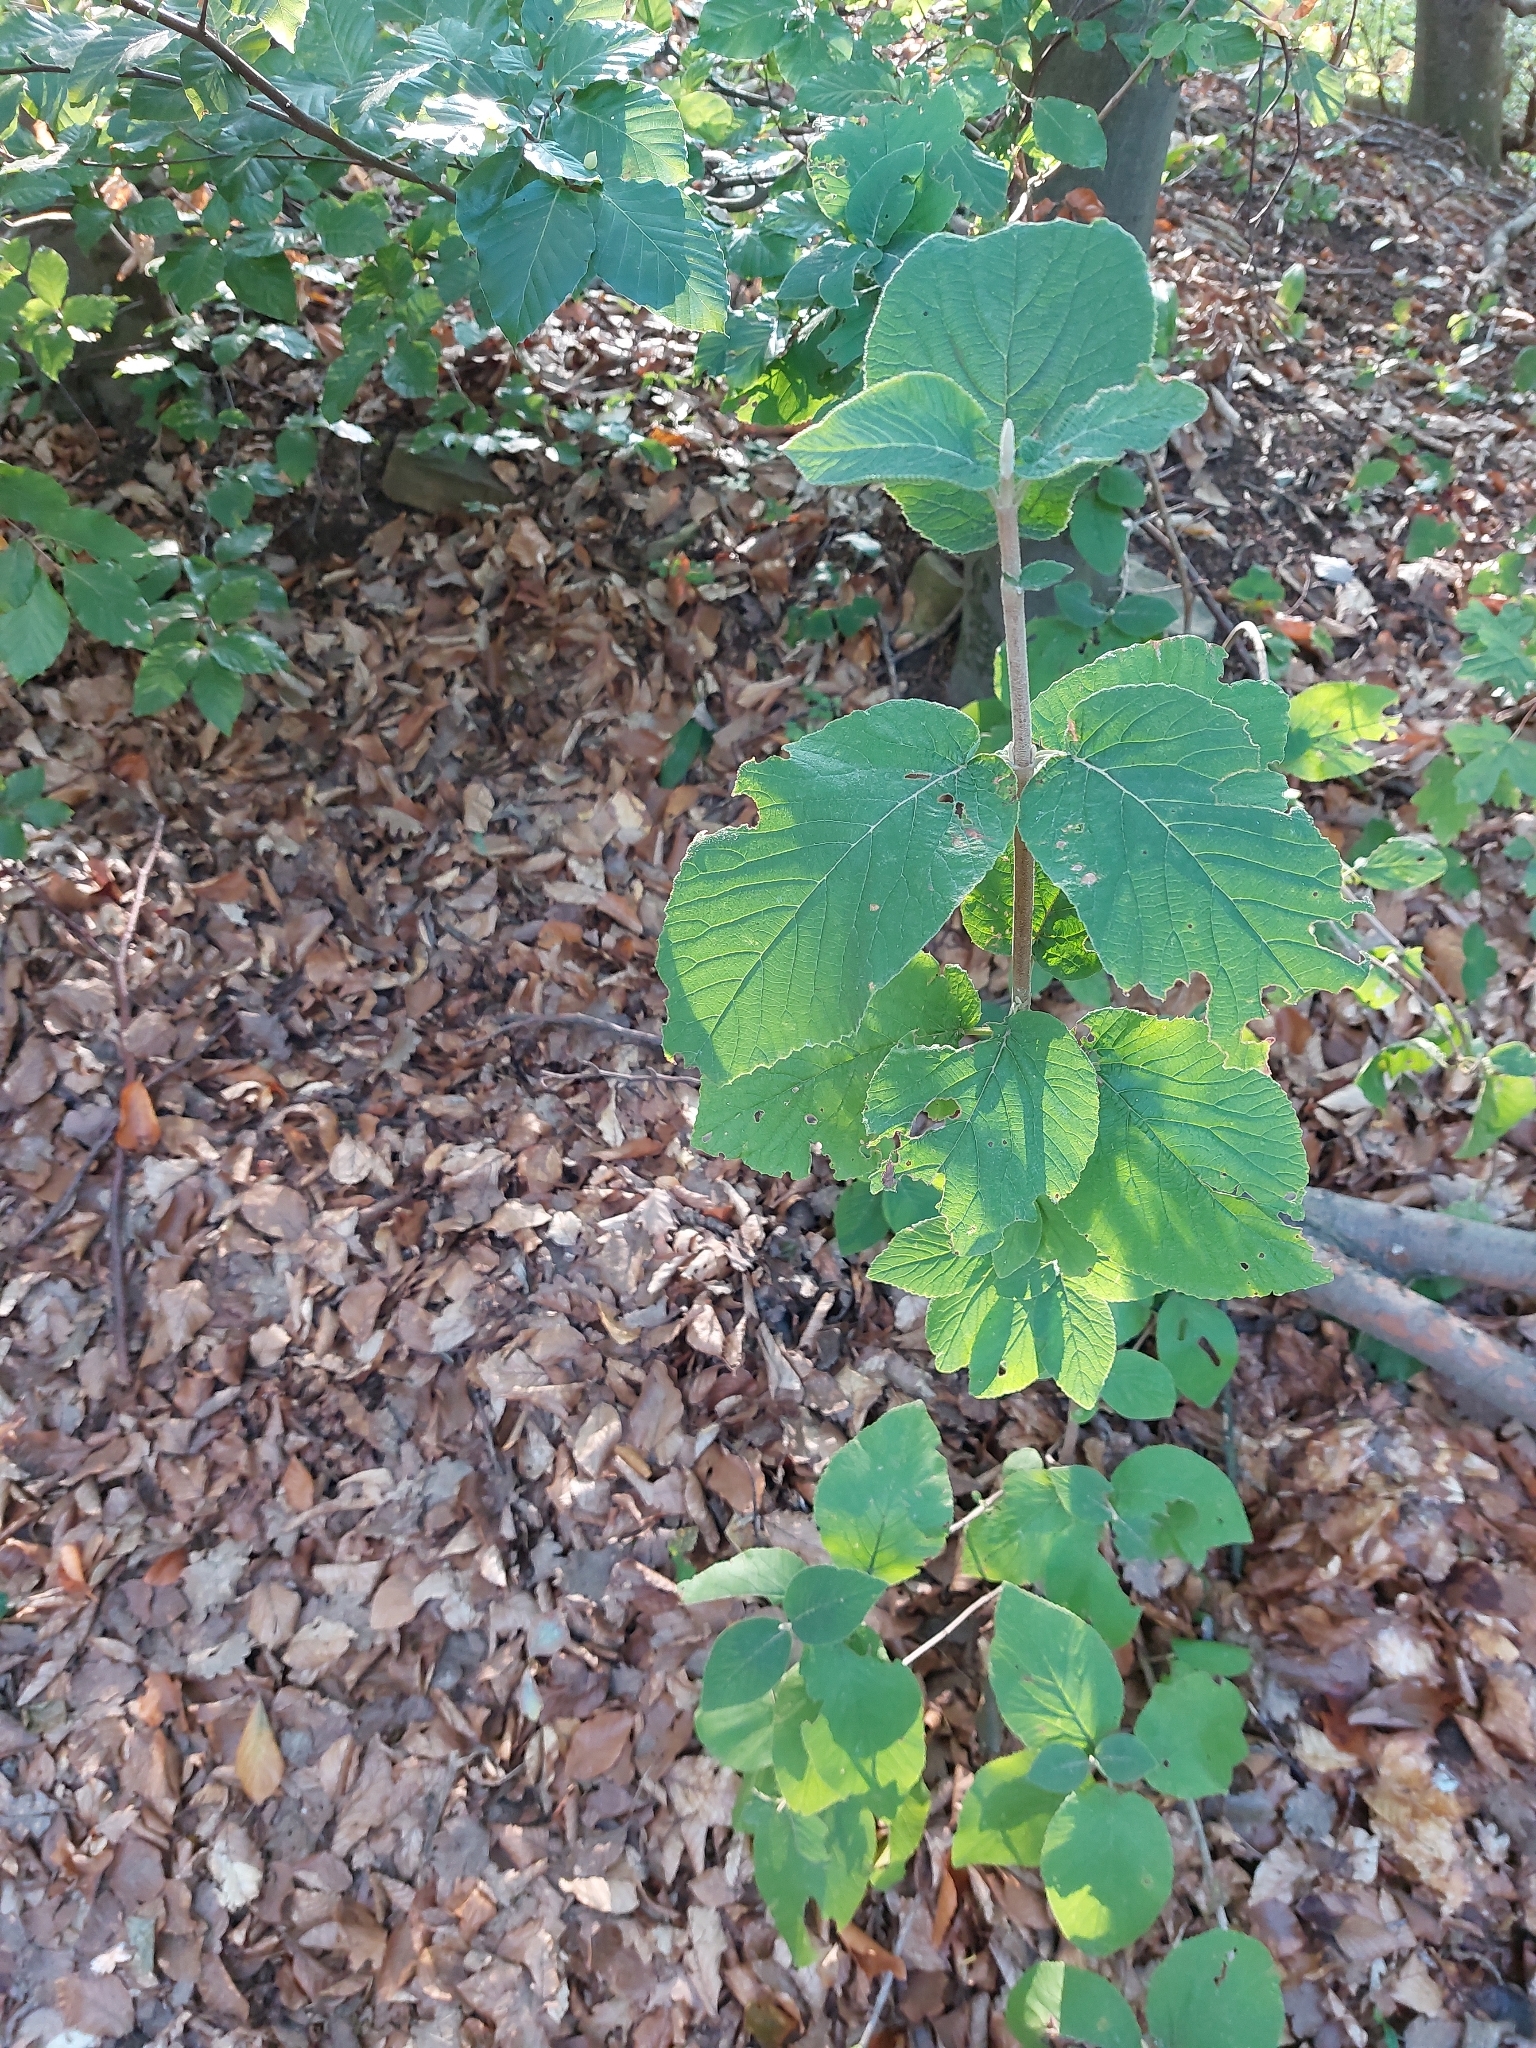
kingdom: Plantae
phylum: Tracheophyta
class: Magnoliopsida
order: Dipsacales
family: Viburnaceae
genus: Viburnum
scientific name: Viburnum lantana
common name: Wayfaring tree
